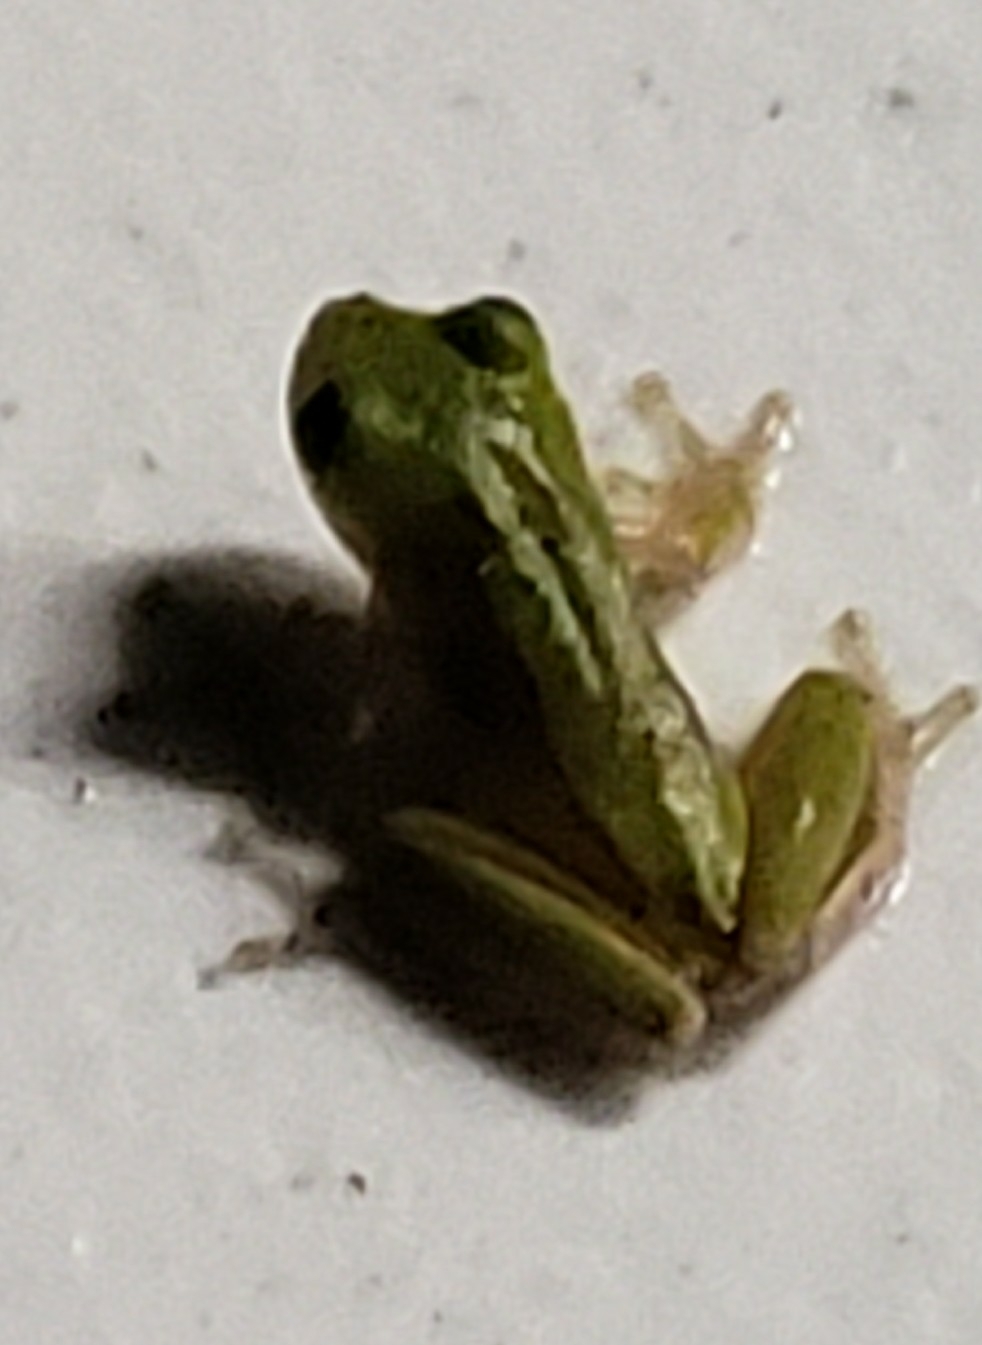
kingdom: Animalia
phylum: Chordata
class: Amphibia
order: Anura
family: Hylidae
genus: Dryophytes
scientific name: Dryophytes squirellus
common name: Squirrel treefrog
